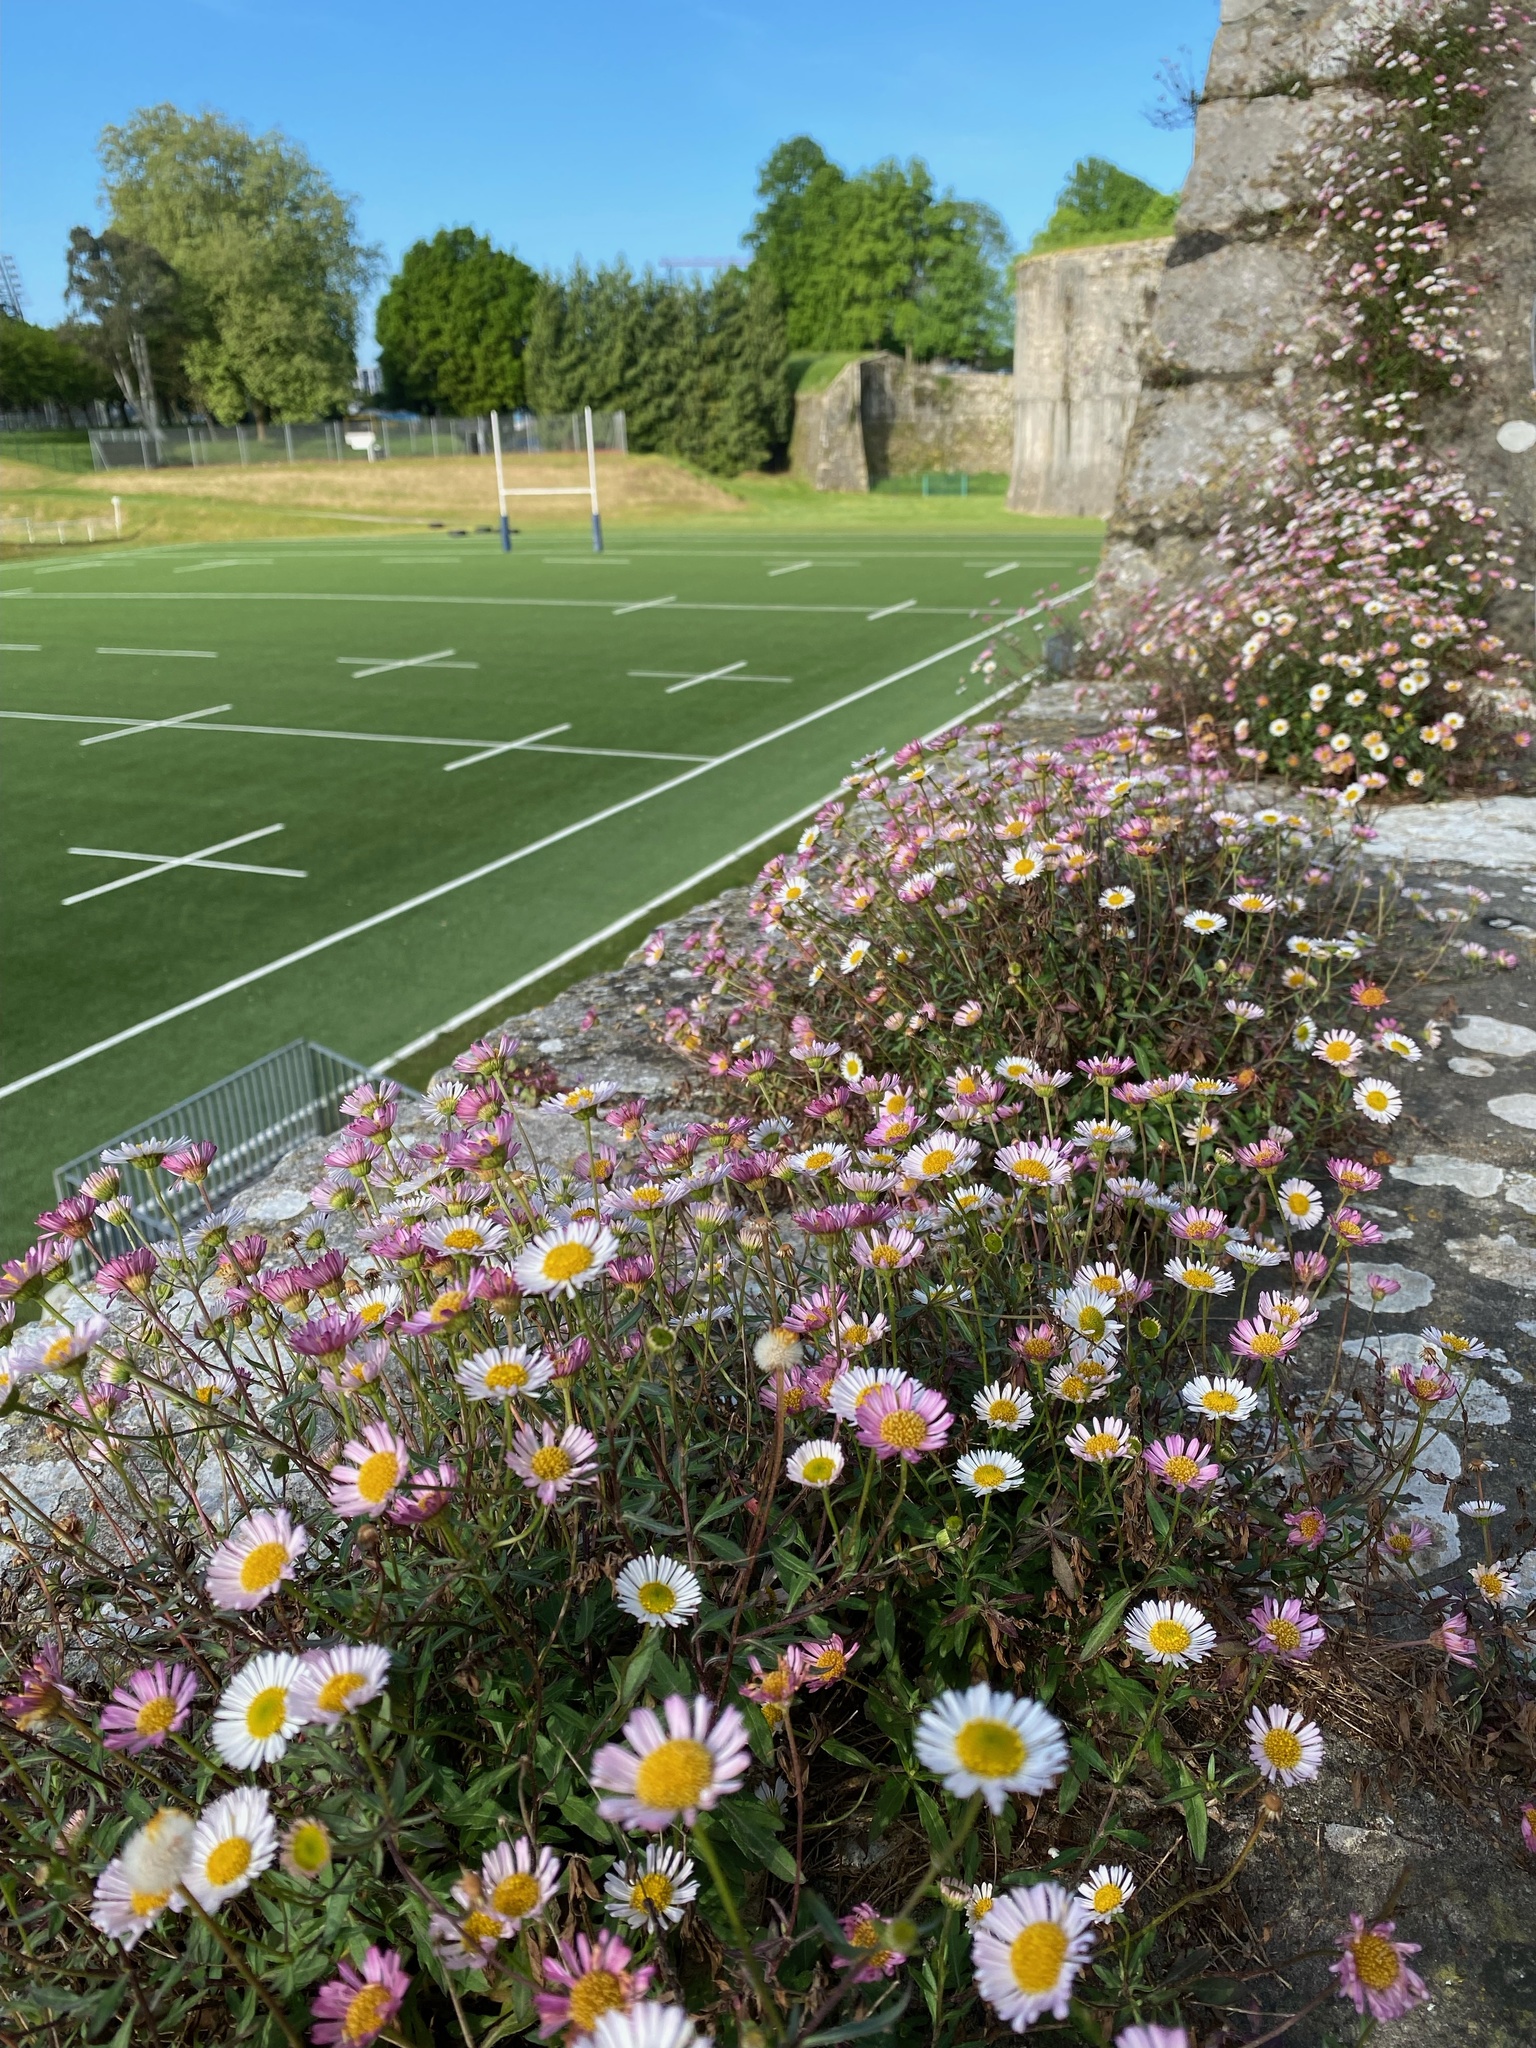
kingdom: Plantae
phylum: Tracheophyta
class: Magnoliopsida
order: Asterales
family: Asteraceae
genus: Erigeron
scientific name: Erigeron karvinskianus
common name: Mexican fleabane
